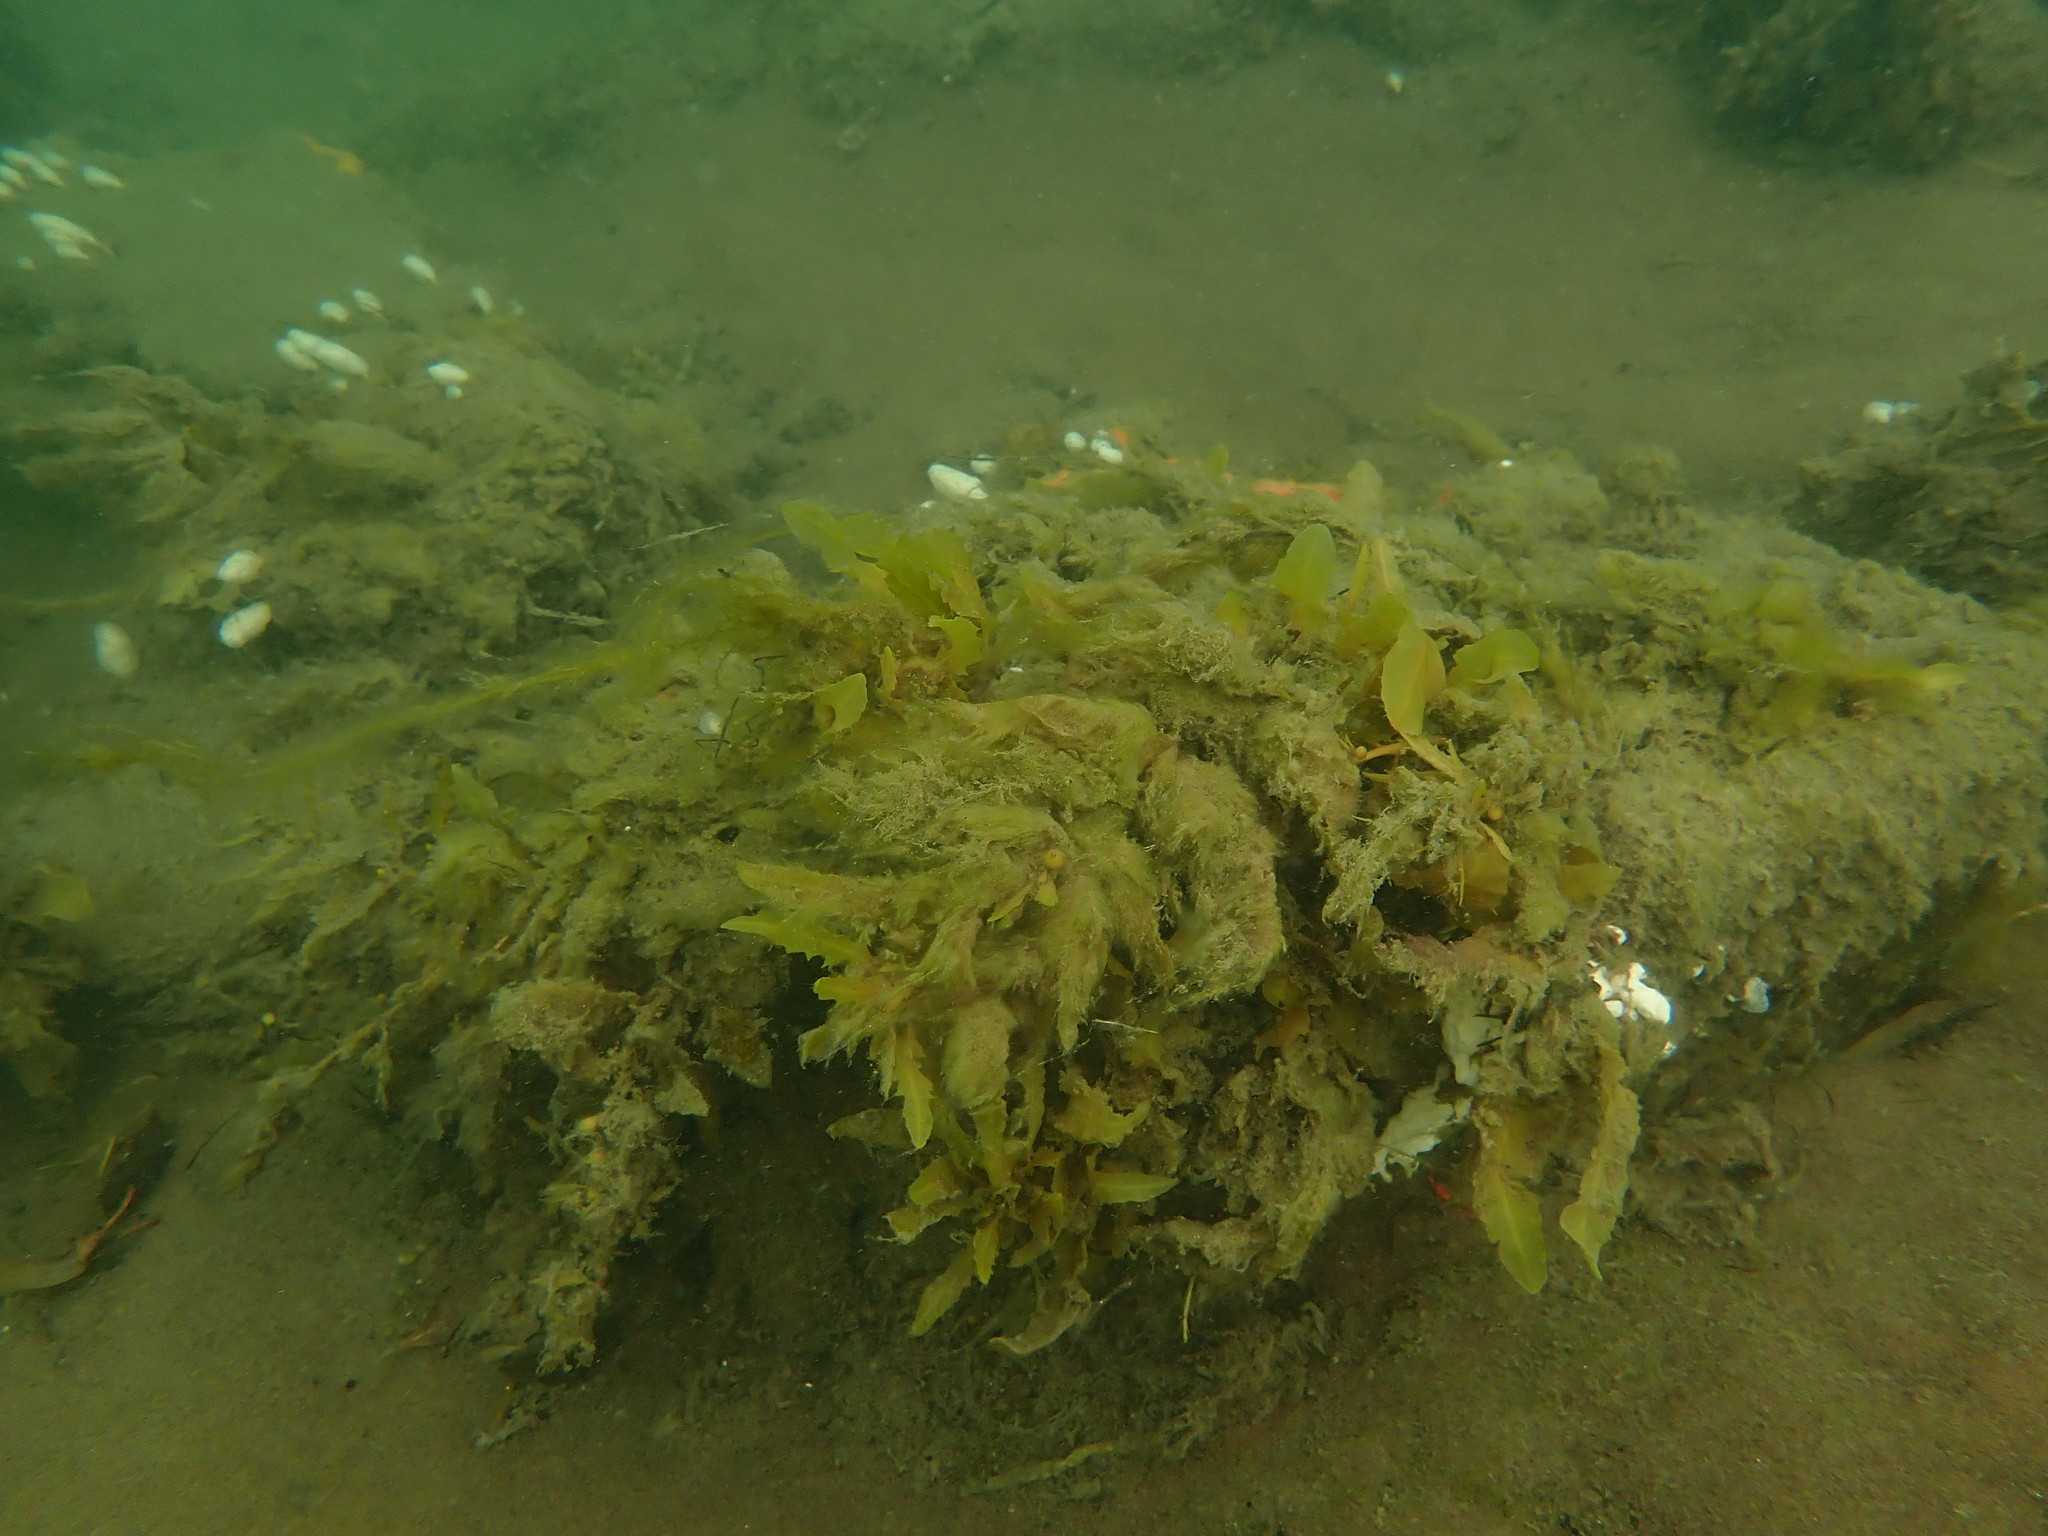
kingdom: Chromista
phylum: Ochrophyta
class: Phaeophyceae
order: Fucales
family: Sargassaceae
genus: Sargassum
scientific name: Sargassum sinclairii
